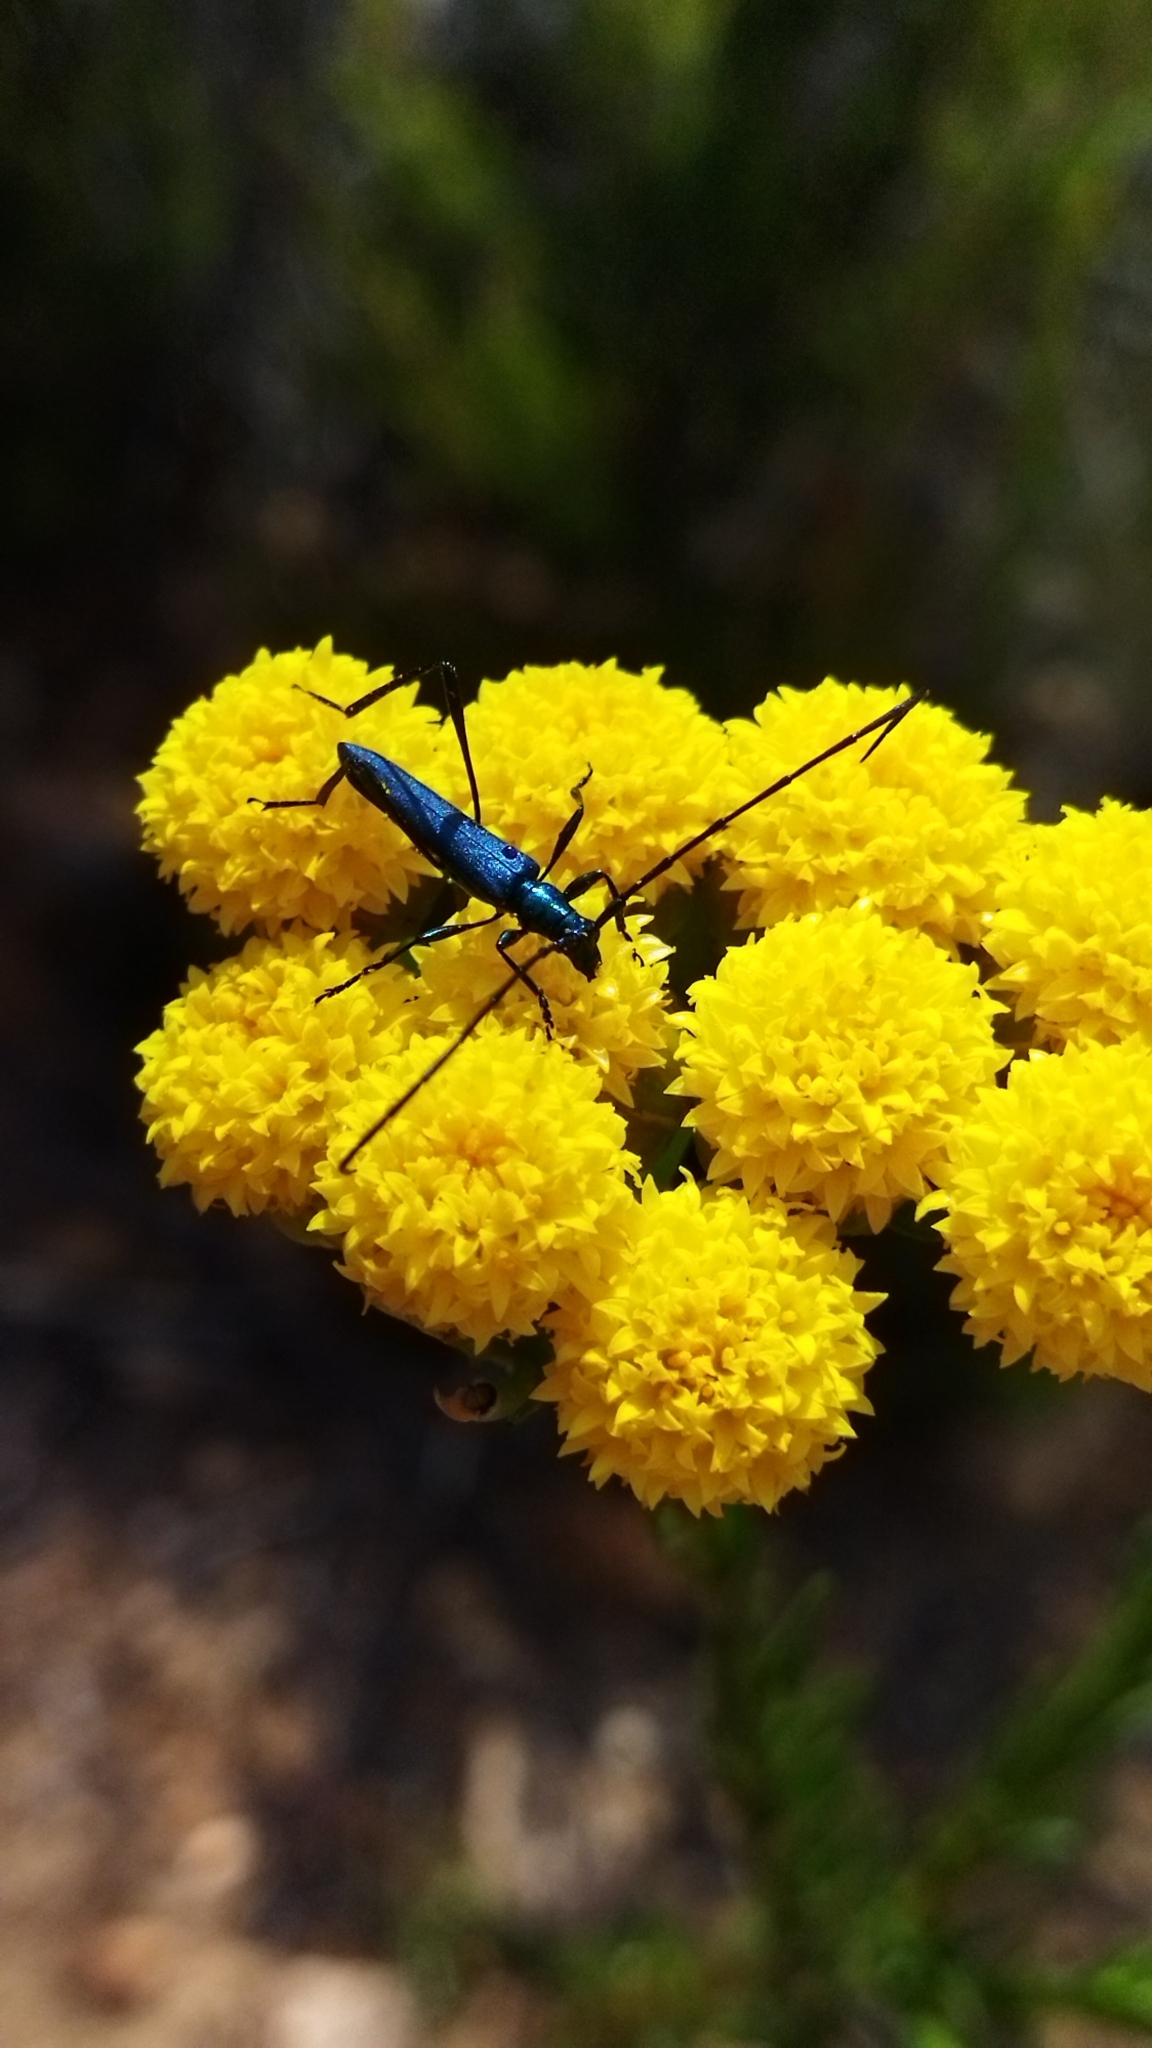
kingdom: Animalia
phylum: Arthropoda
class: Insecta
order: Coleoptera
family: Cerambycidae
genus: Promeces
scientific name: Promeces longipes
